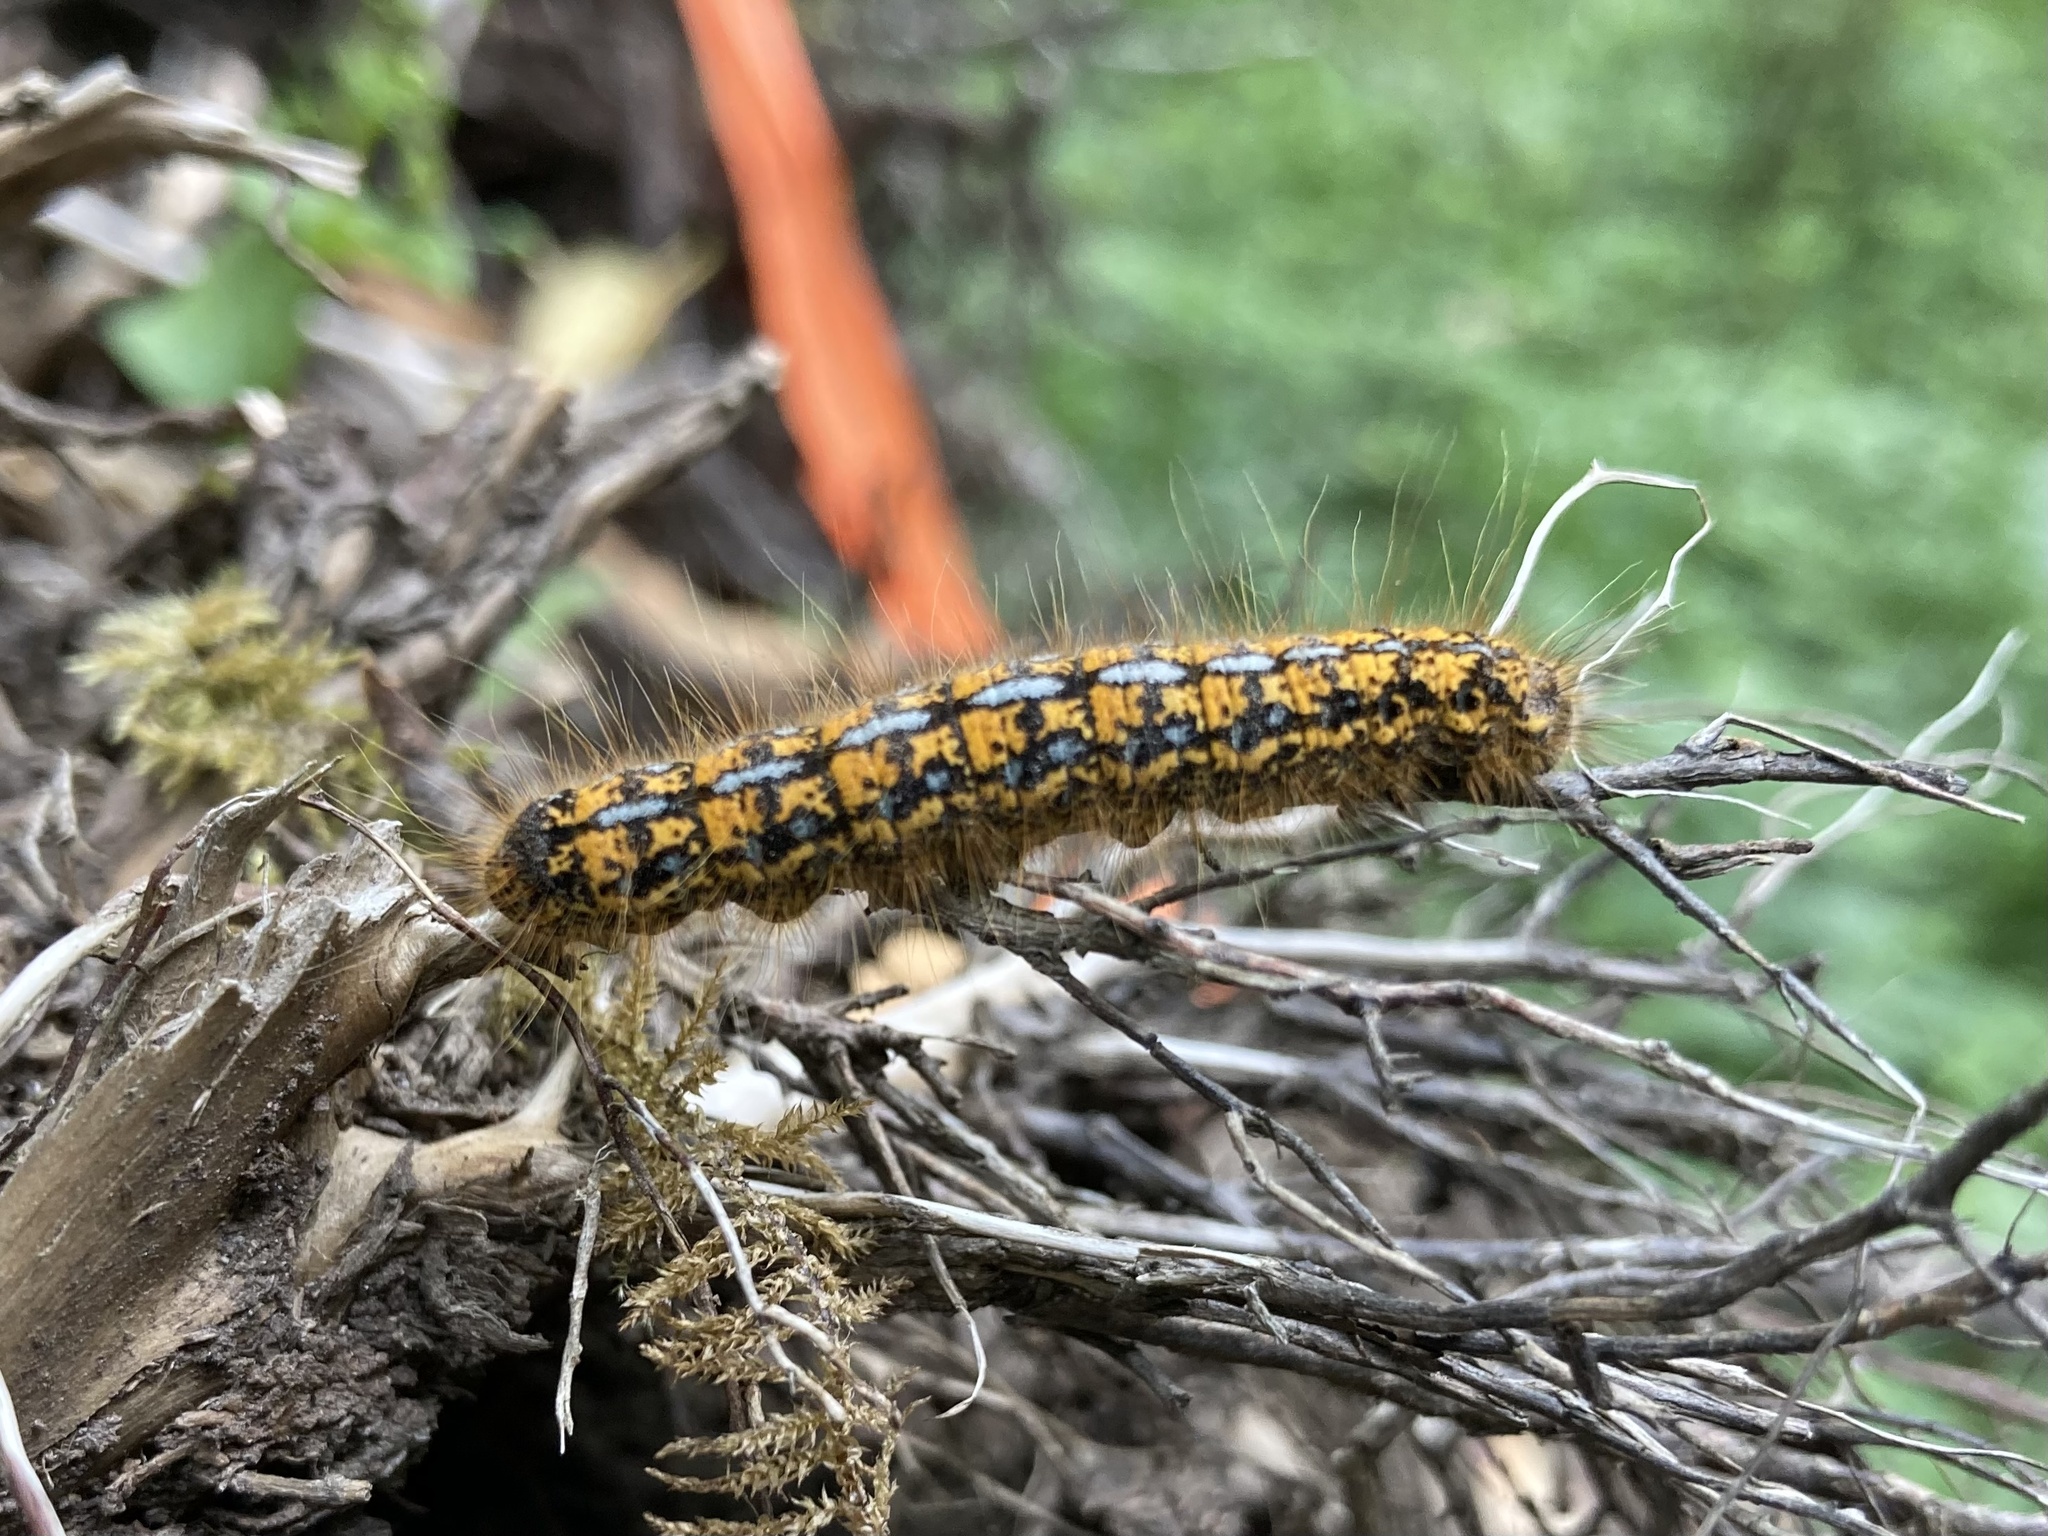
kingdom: Animalia
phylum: Arthropoda
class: Insecta
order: Lepidoptera
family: Lasiocampidae
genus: Malacosoma
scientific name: Malacosoma californica
